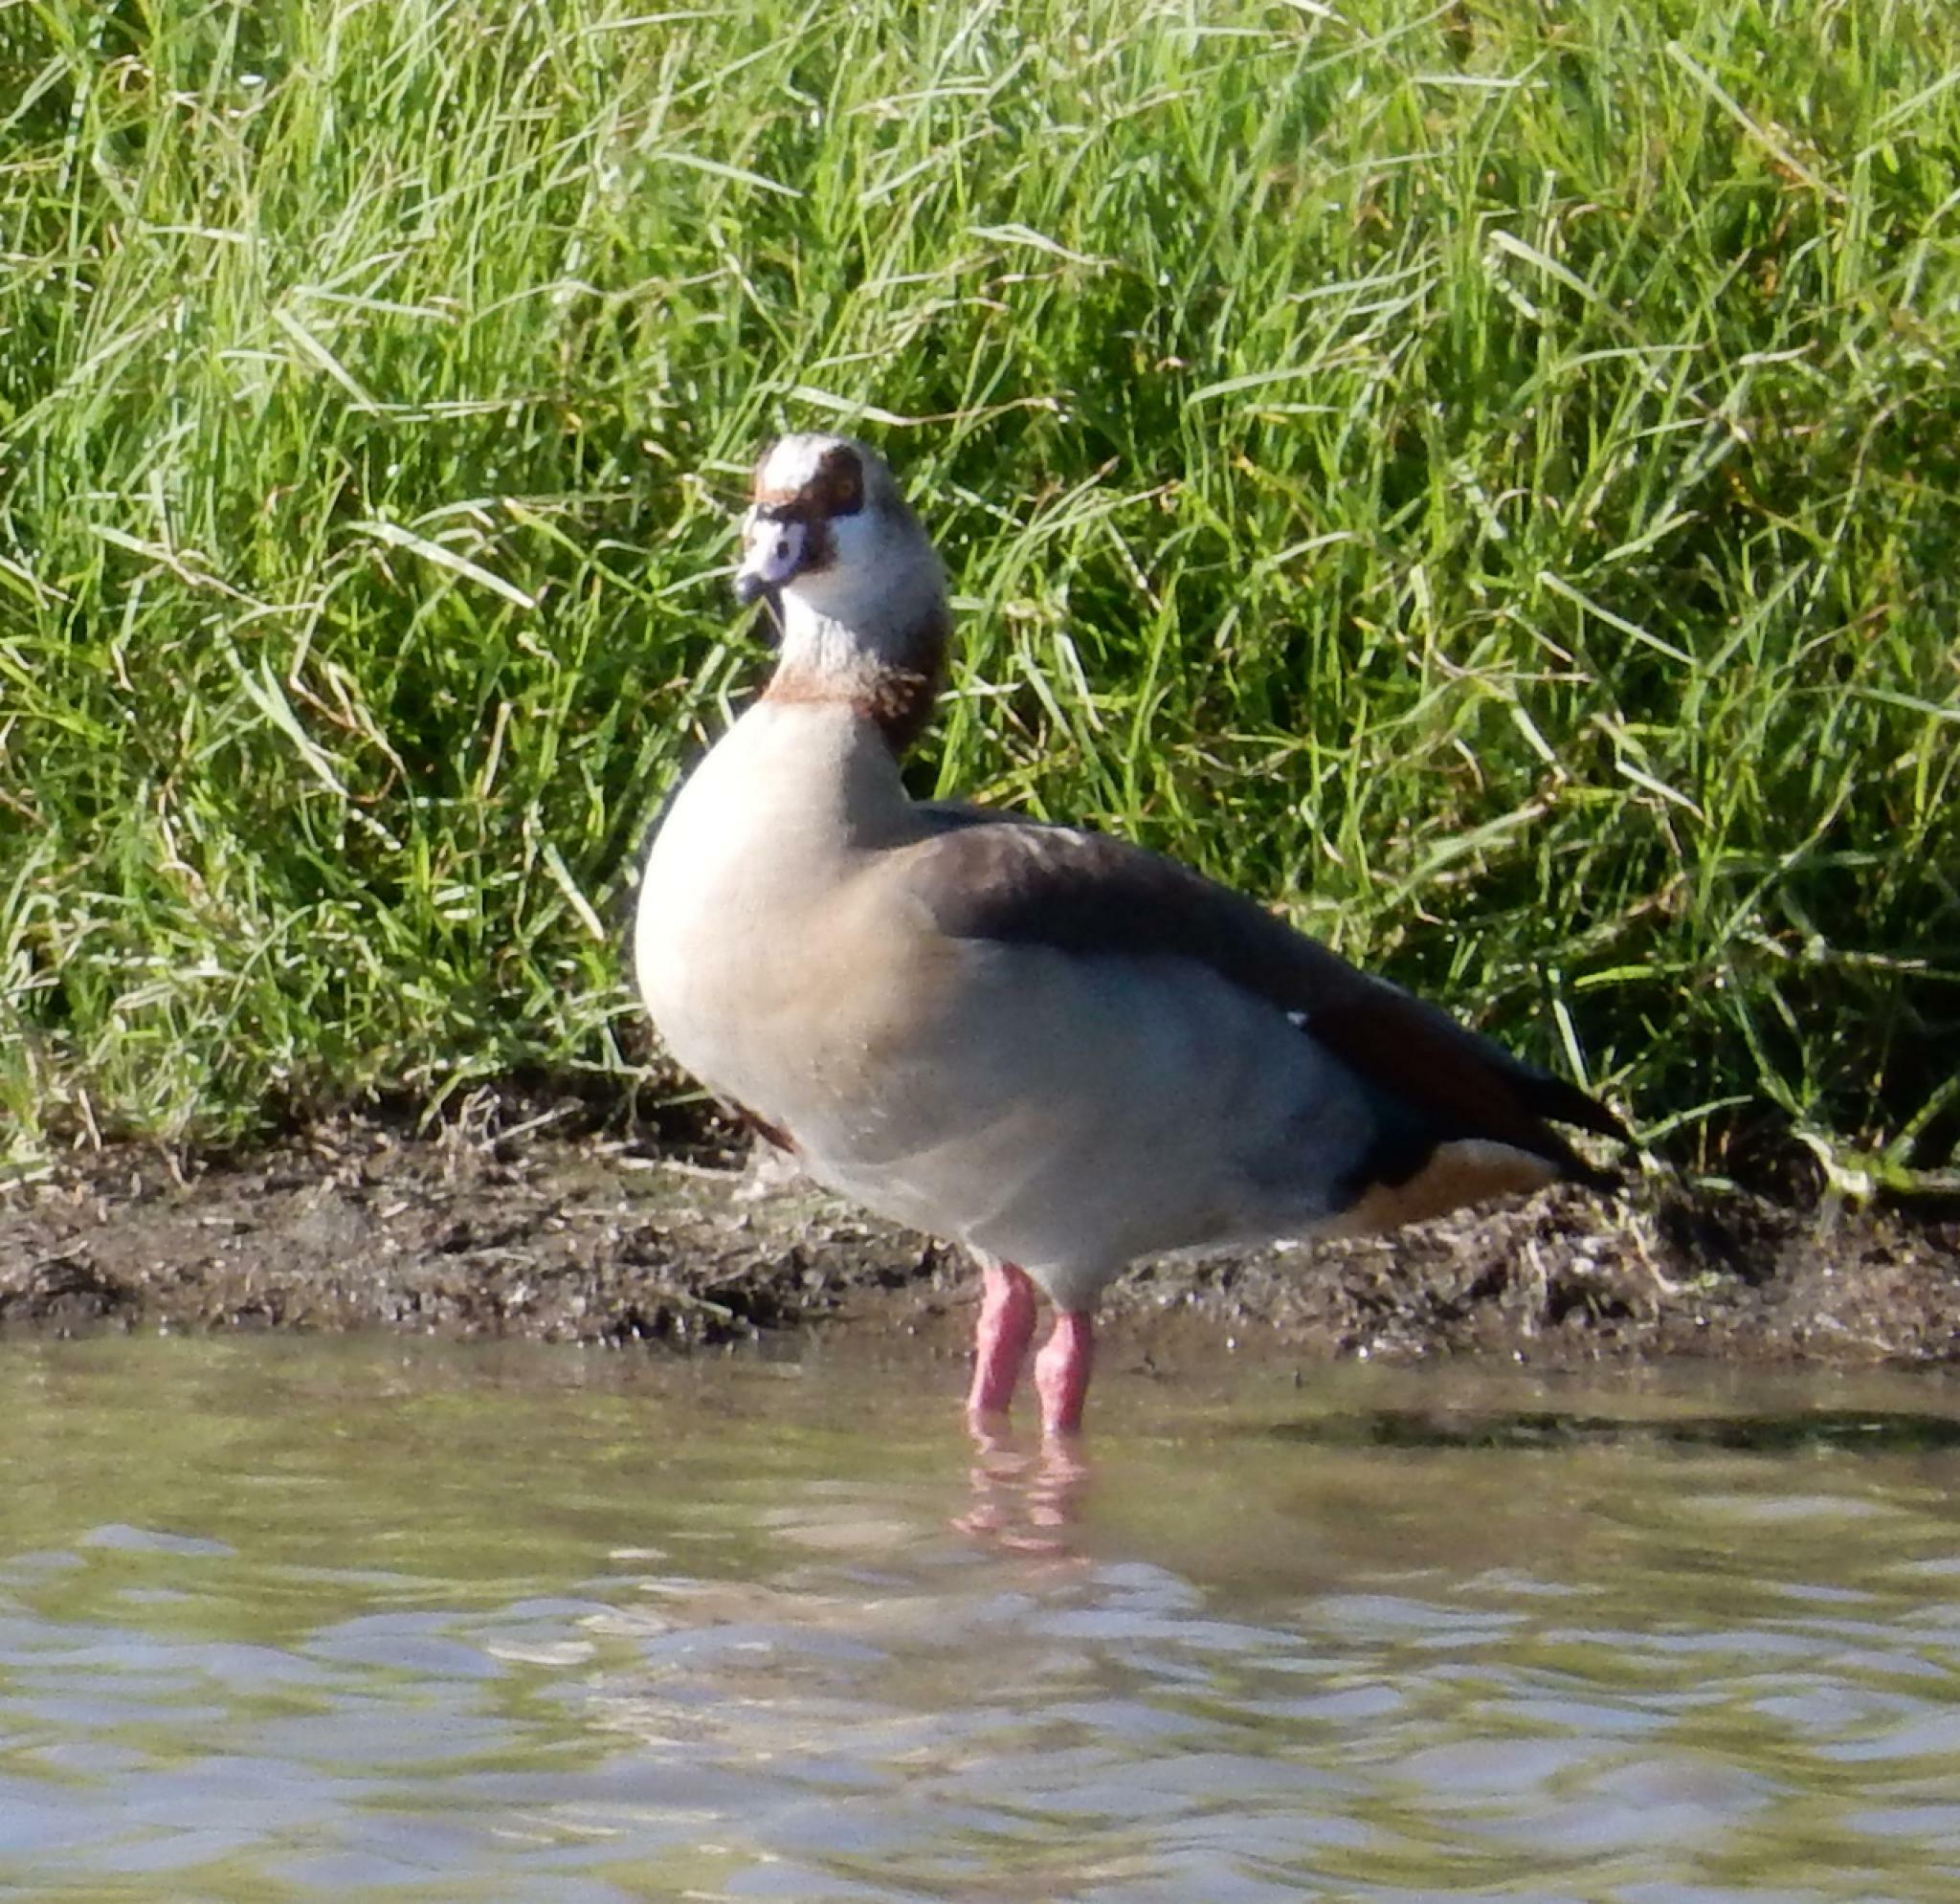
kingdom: Animalia
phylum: Chordata
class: Aves
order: Anseriformes
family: Anatidae
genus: Alopochen
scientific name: Alopochen aegyptiaca
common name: Egyptian goose
